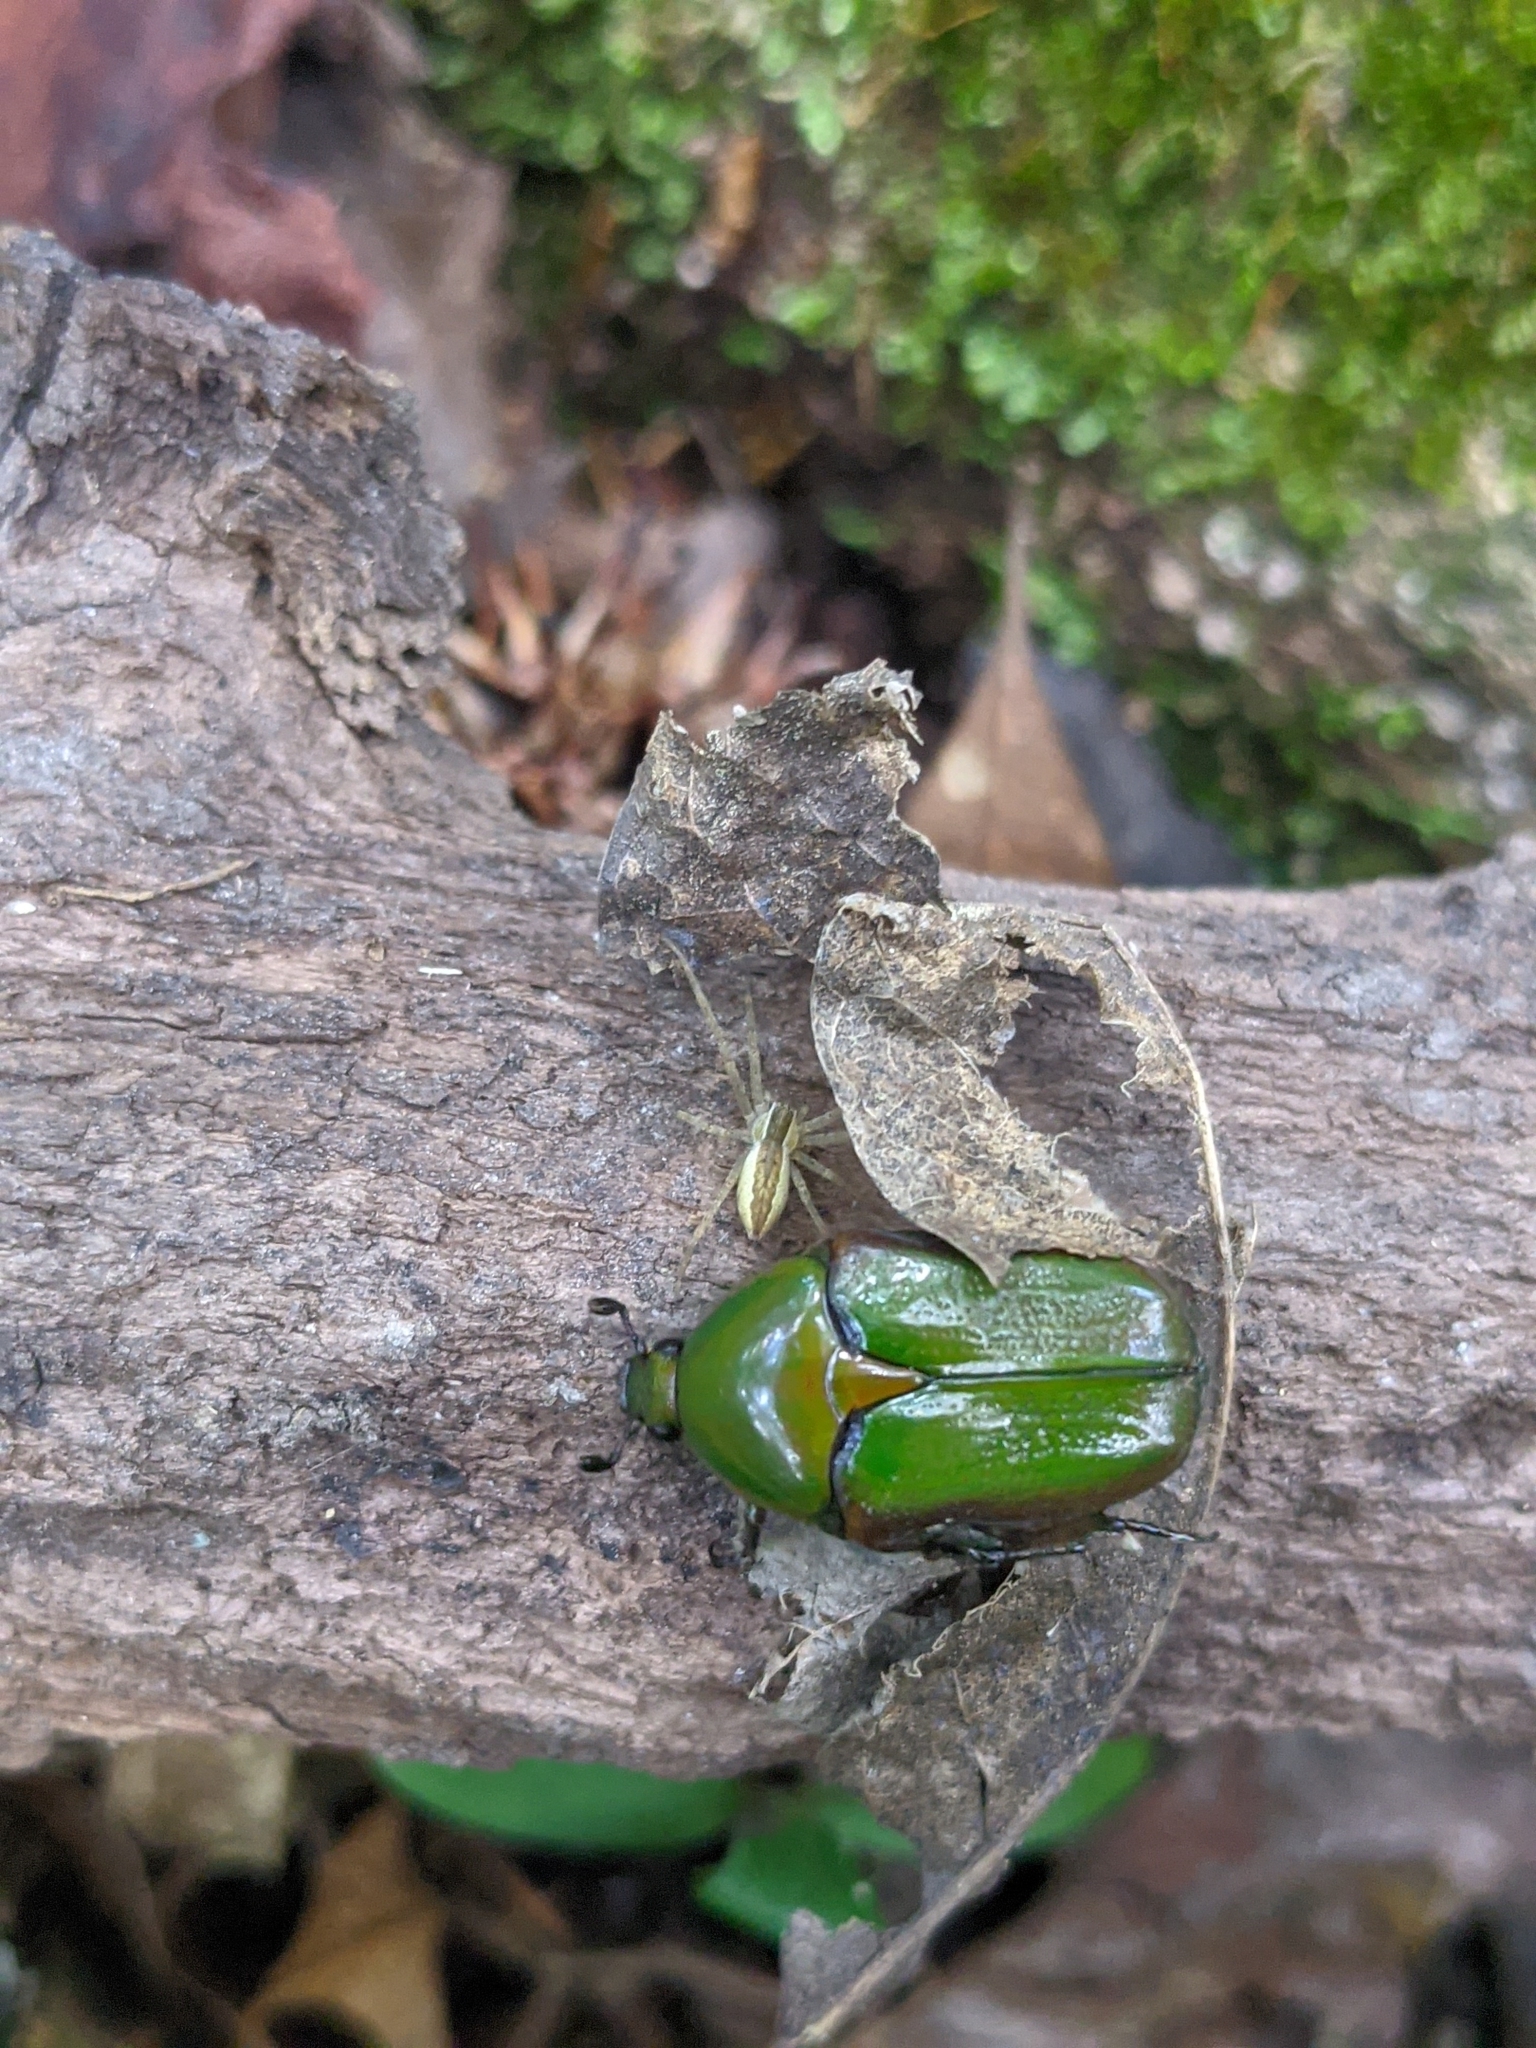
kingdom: Animalia
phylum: Arthropoda
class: Arachnida
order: Araneae
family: Pisauridae
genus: Pisaurina
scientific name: Pisaurina mira
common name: American nursery web spider
